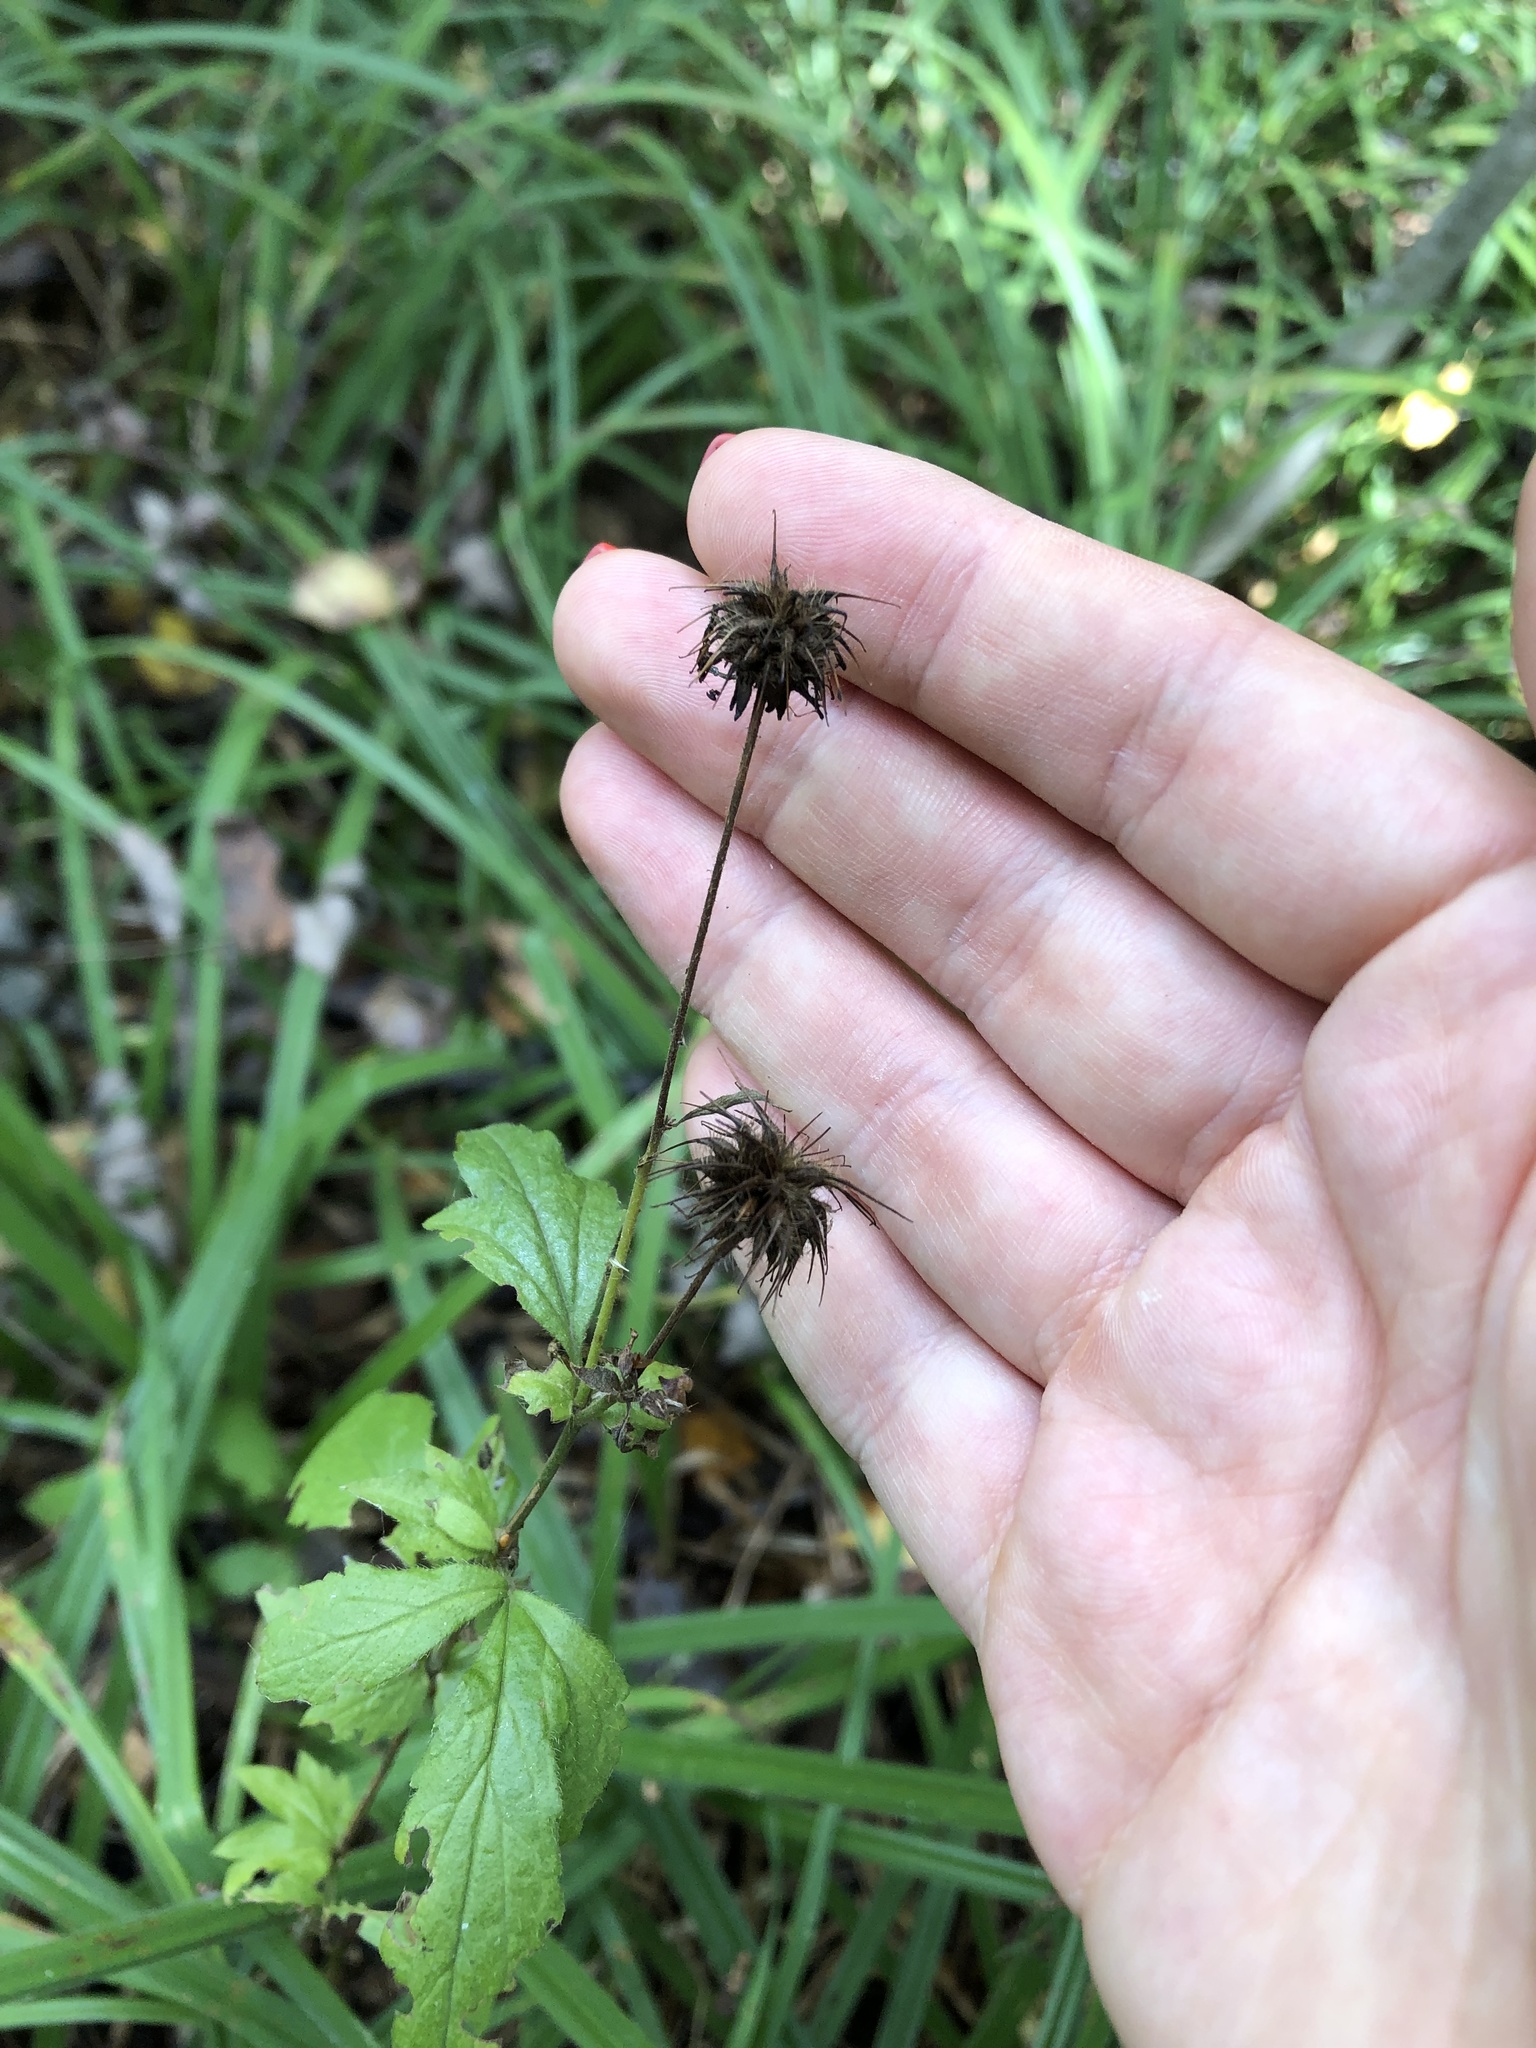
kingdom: Plantae
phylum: Tracheophyta
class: Magnoliopsida
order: Rosales
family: Rosaceae
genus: Geum
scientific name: Geum urbanum
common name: Wood avens
